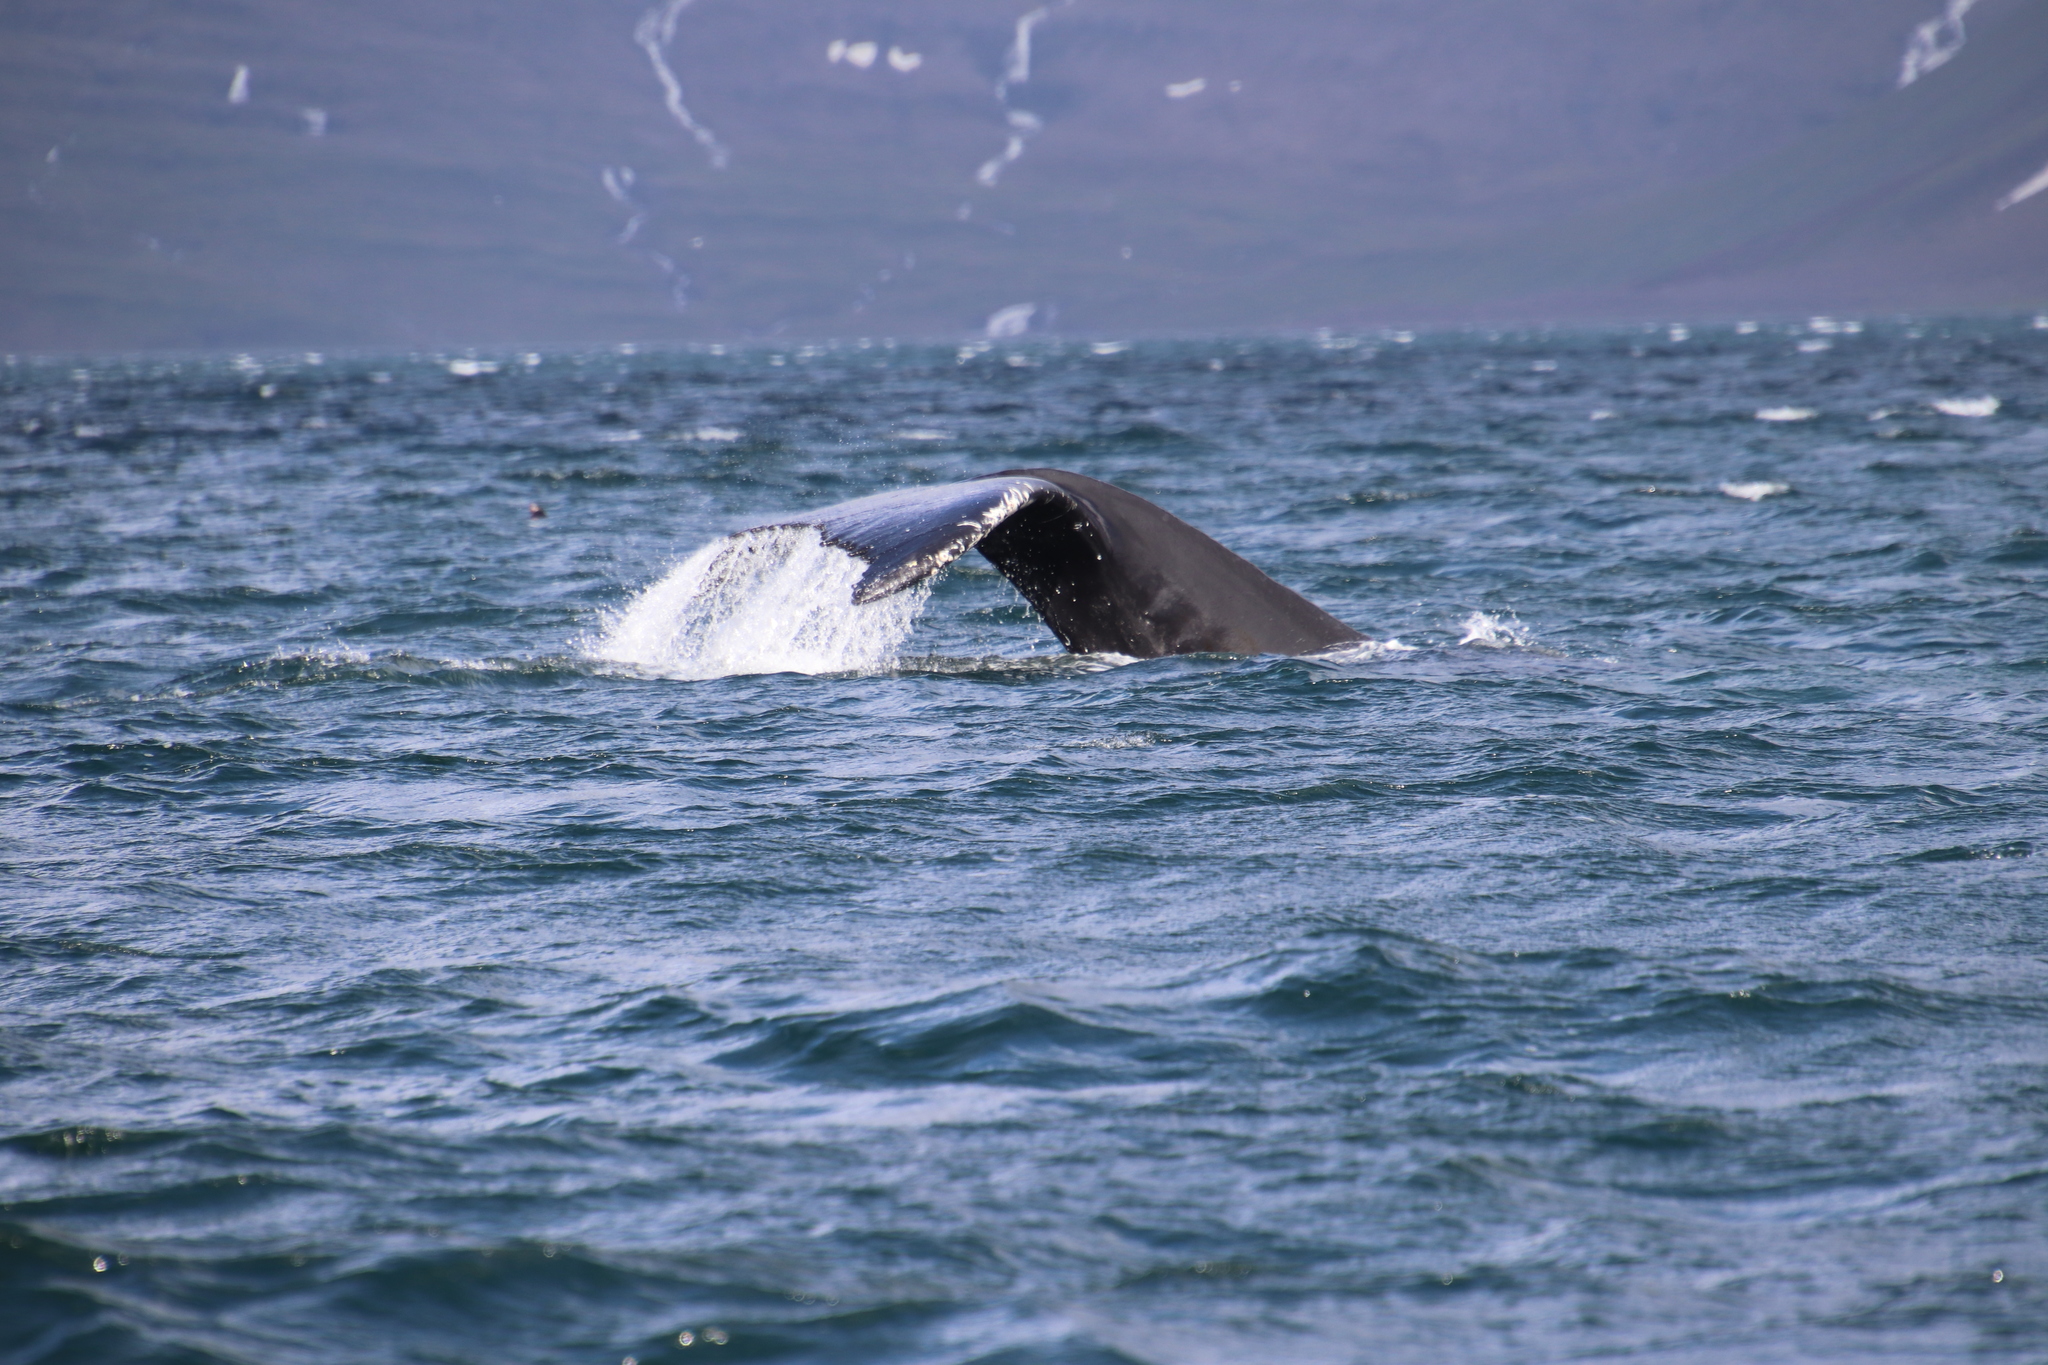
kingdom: Animalia
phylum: Chordata
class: Mammalia
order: Cetacea
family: Balaenopteridae
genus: Megaptera
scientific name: Megaptera novaeangliae
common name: Humpback whale
